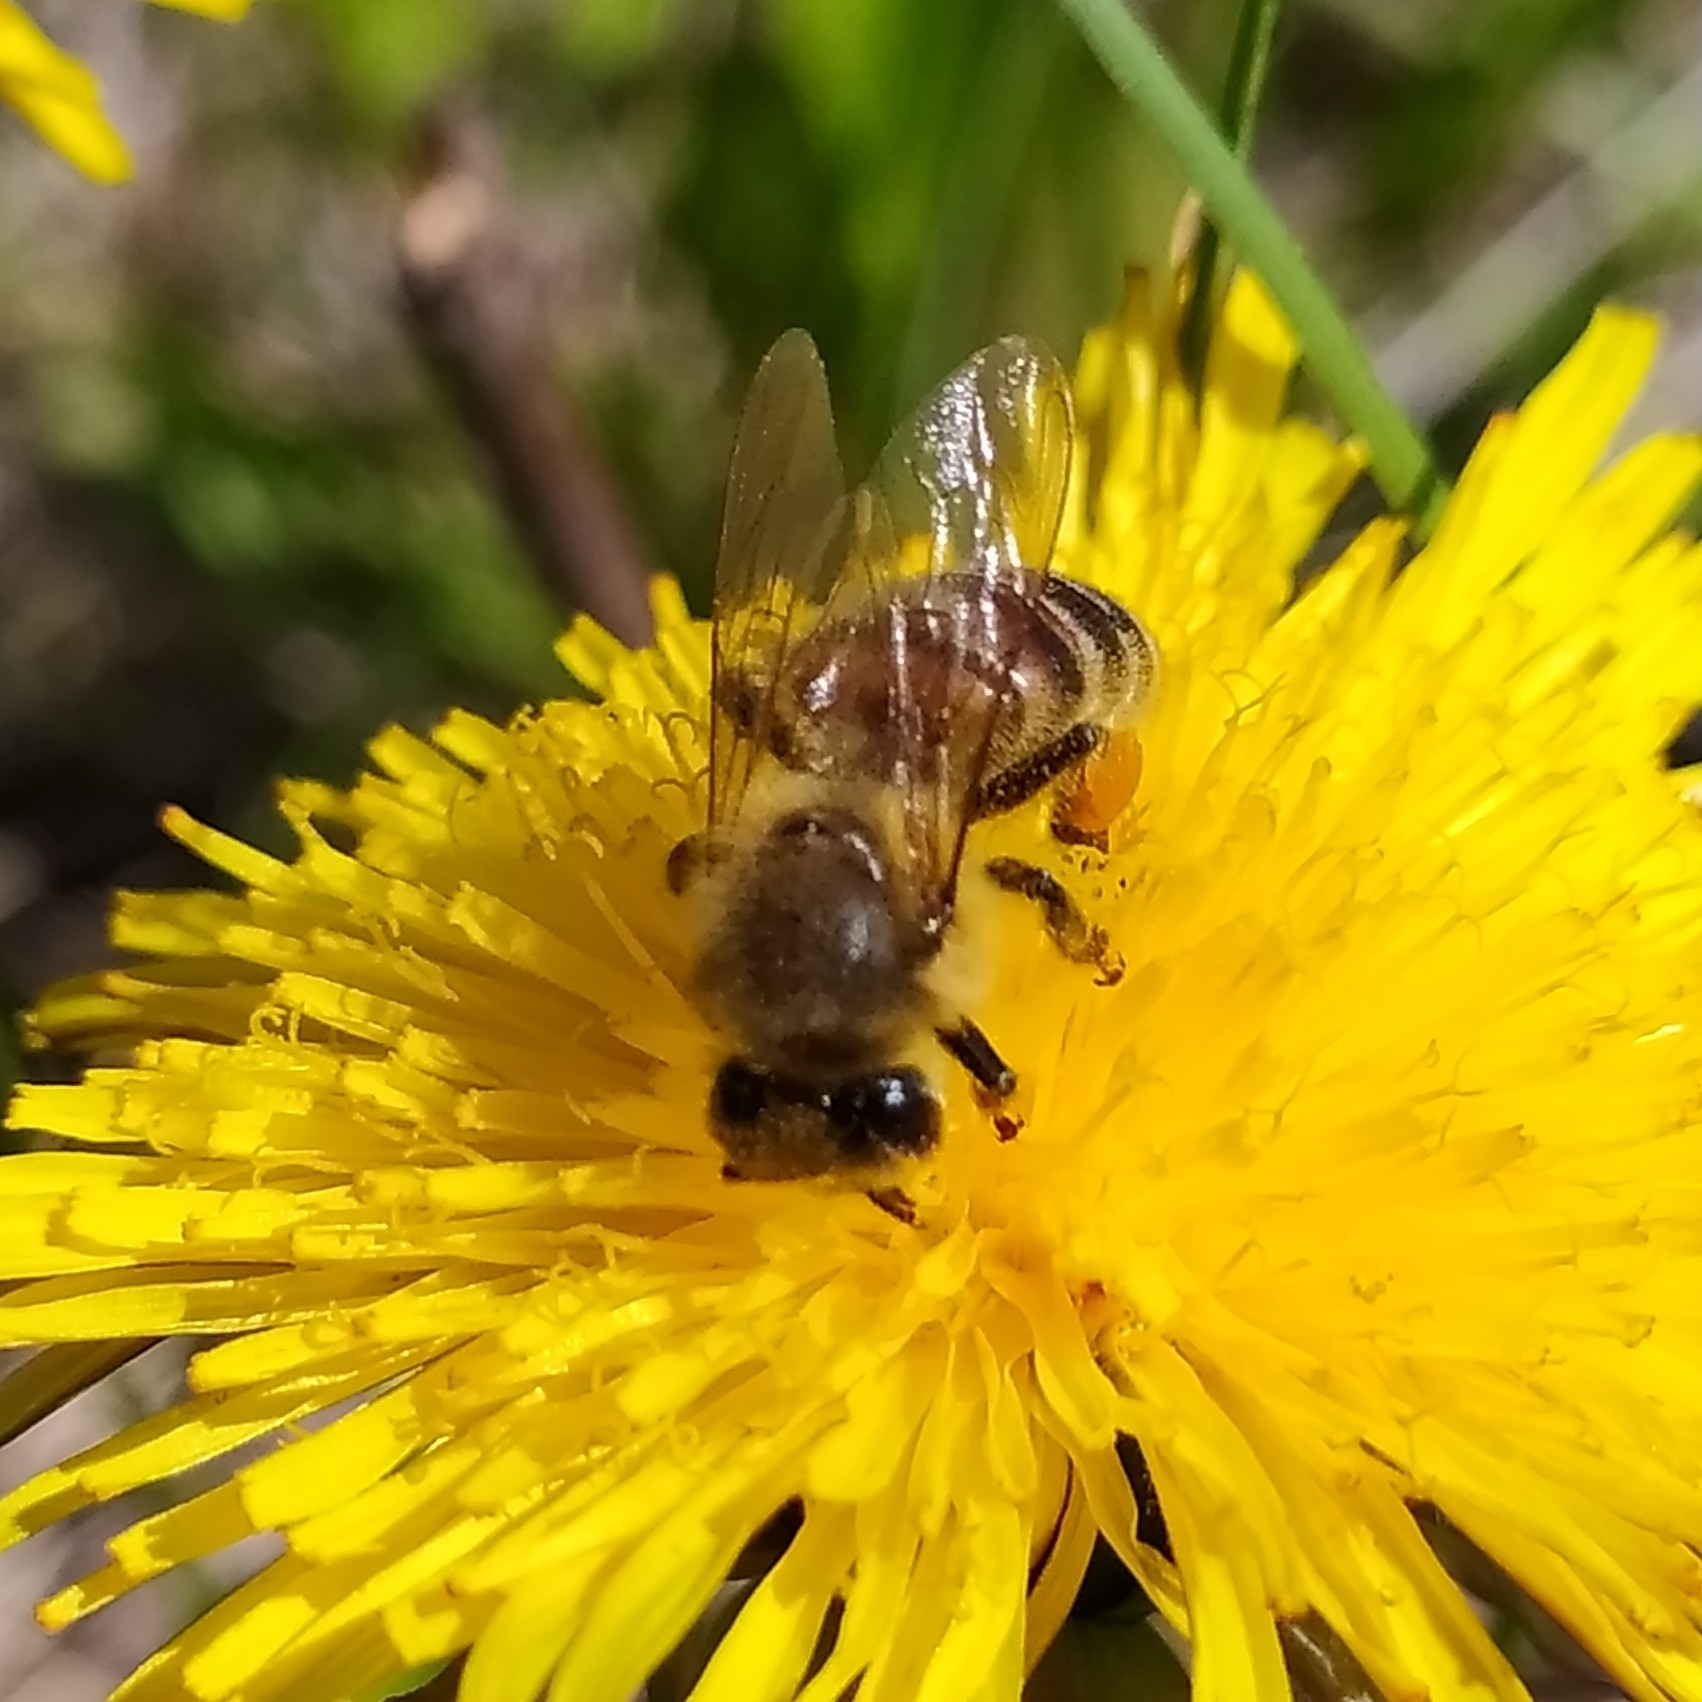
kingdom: Animalia
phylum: Arthropoda
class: Insecta
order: Hymenoptera
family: Apidae
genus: Apis
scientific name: Apis mellifera
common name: Honey bee
